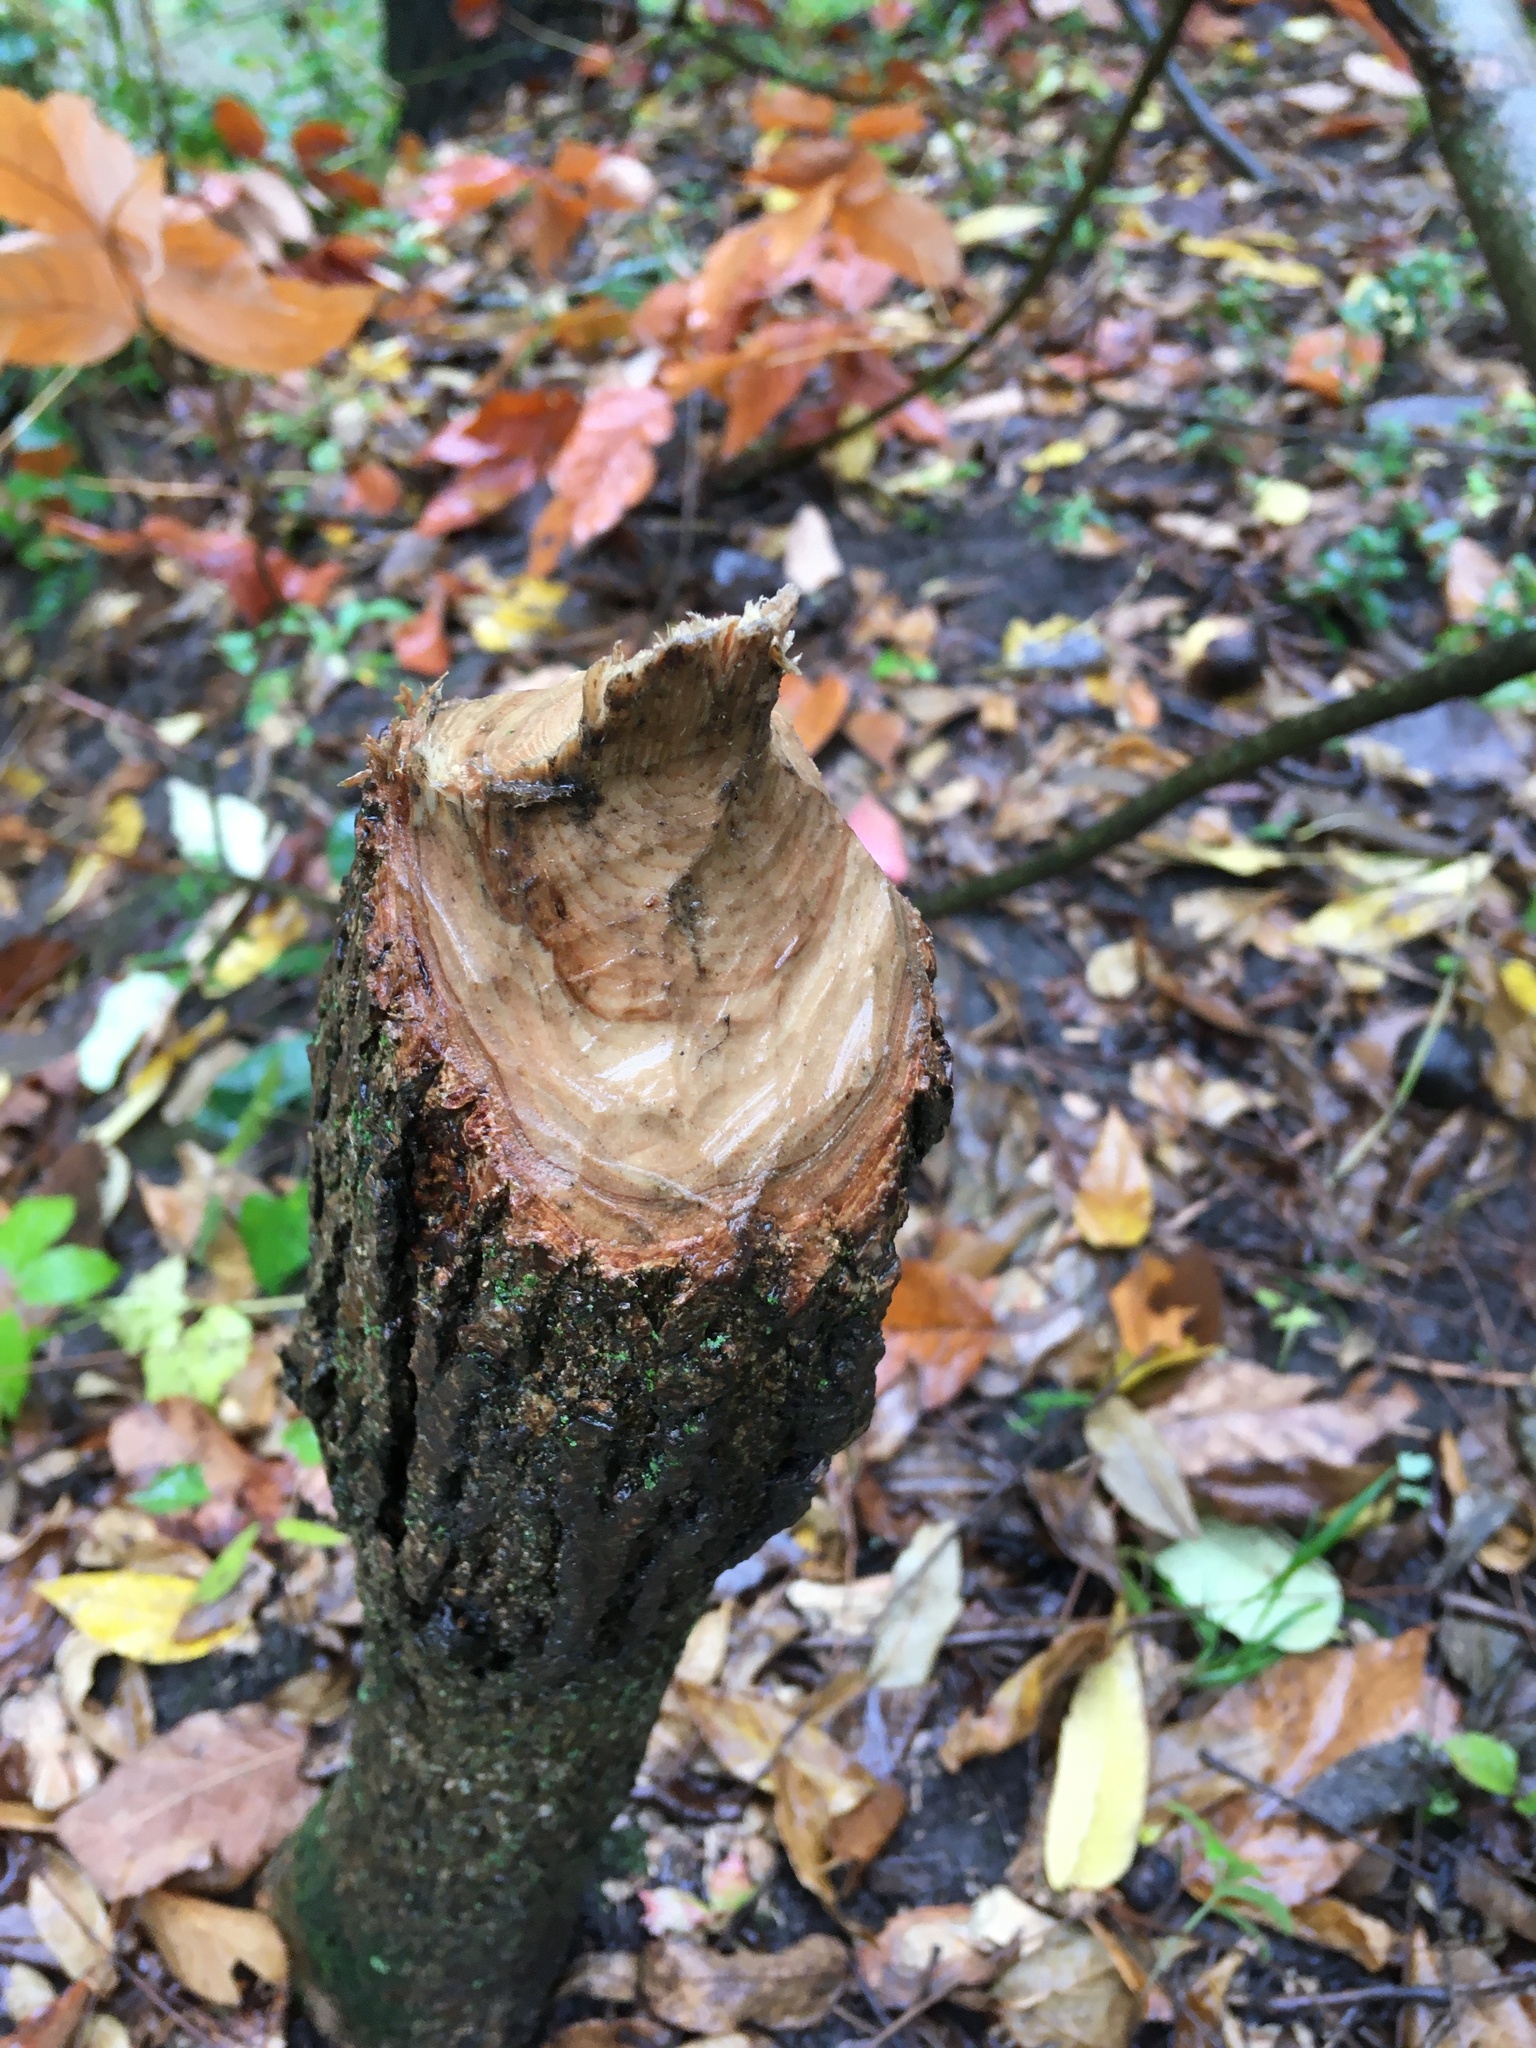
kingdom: Animalia
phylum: Chordata
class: Mammalia
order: Rodentia
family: Castoridae
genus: Castor
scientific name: Castor canadensis
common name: American beaver
